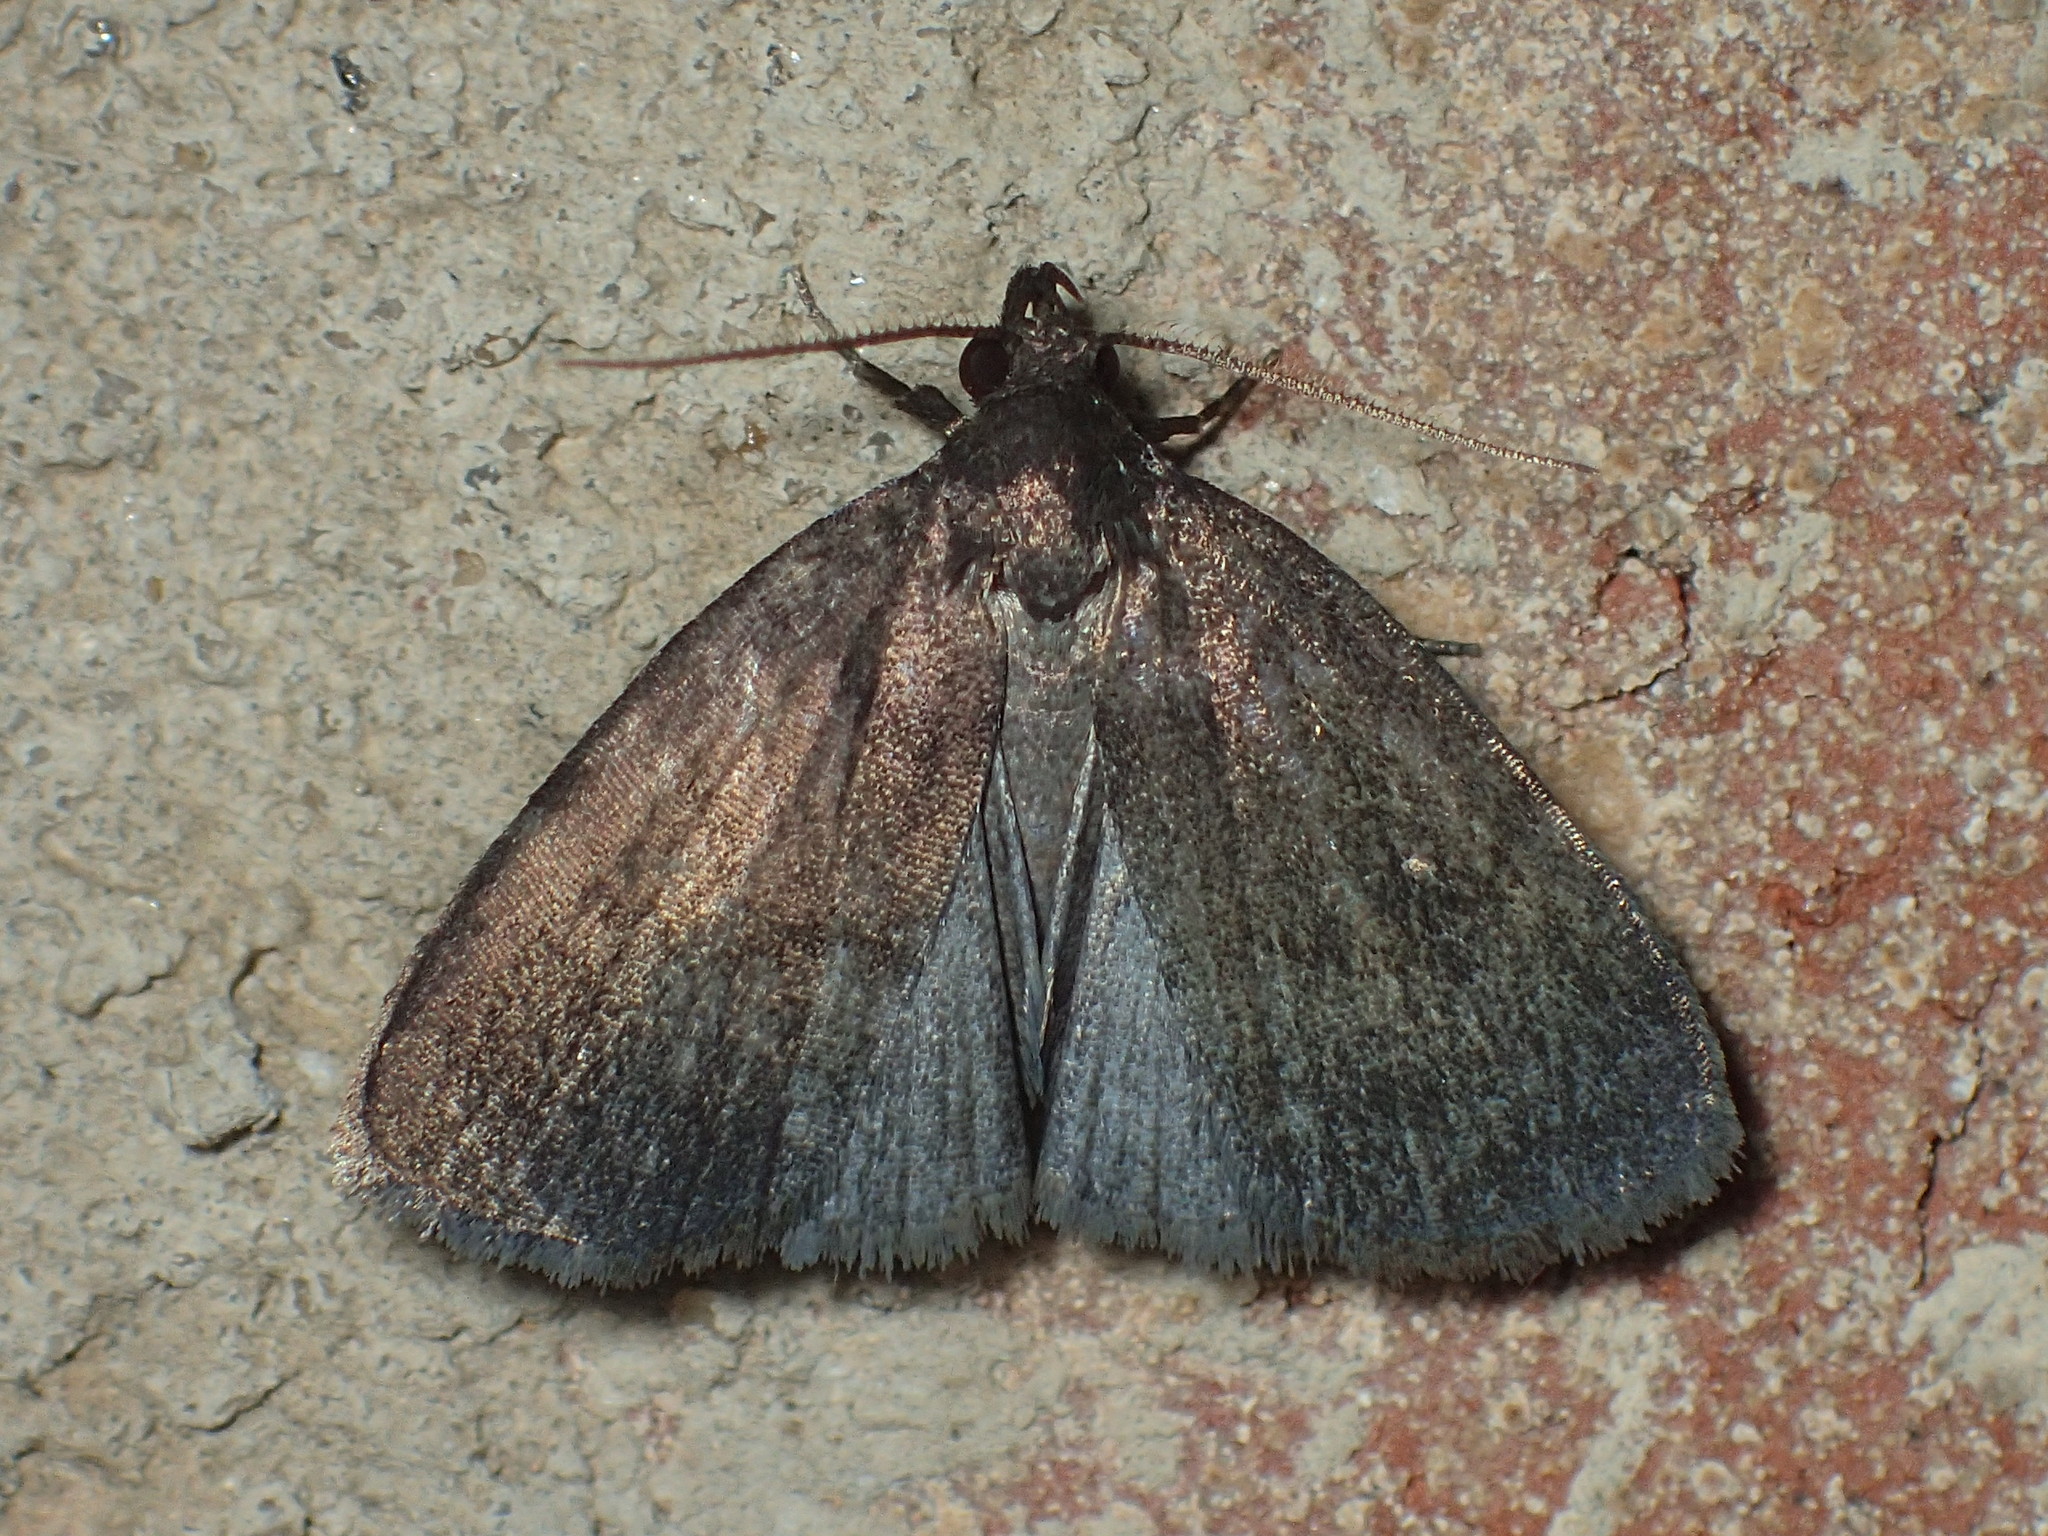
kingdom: Animalia
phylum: Arthropoda
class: Insecta
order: Lepidoptera
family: Erebidae
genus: Idia
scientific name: Idia rotundalis
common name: Rotund idia moth
